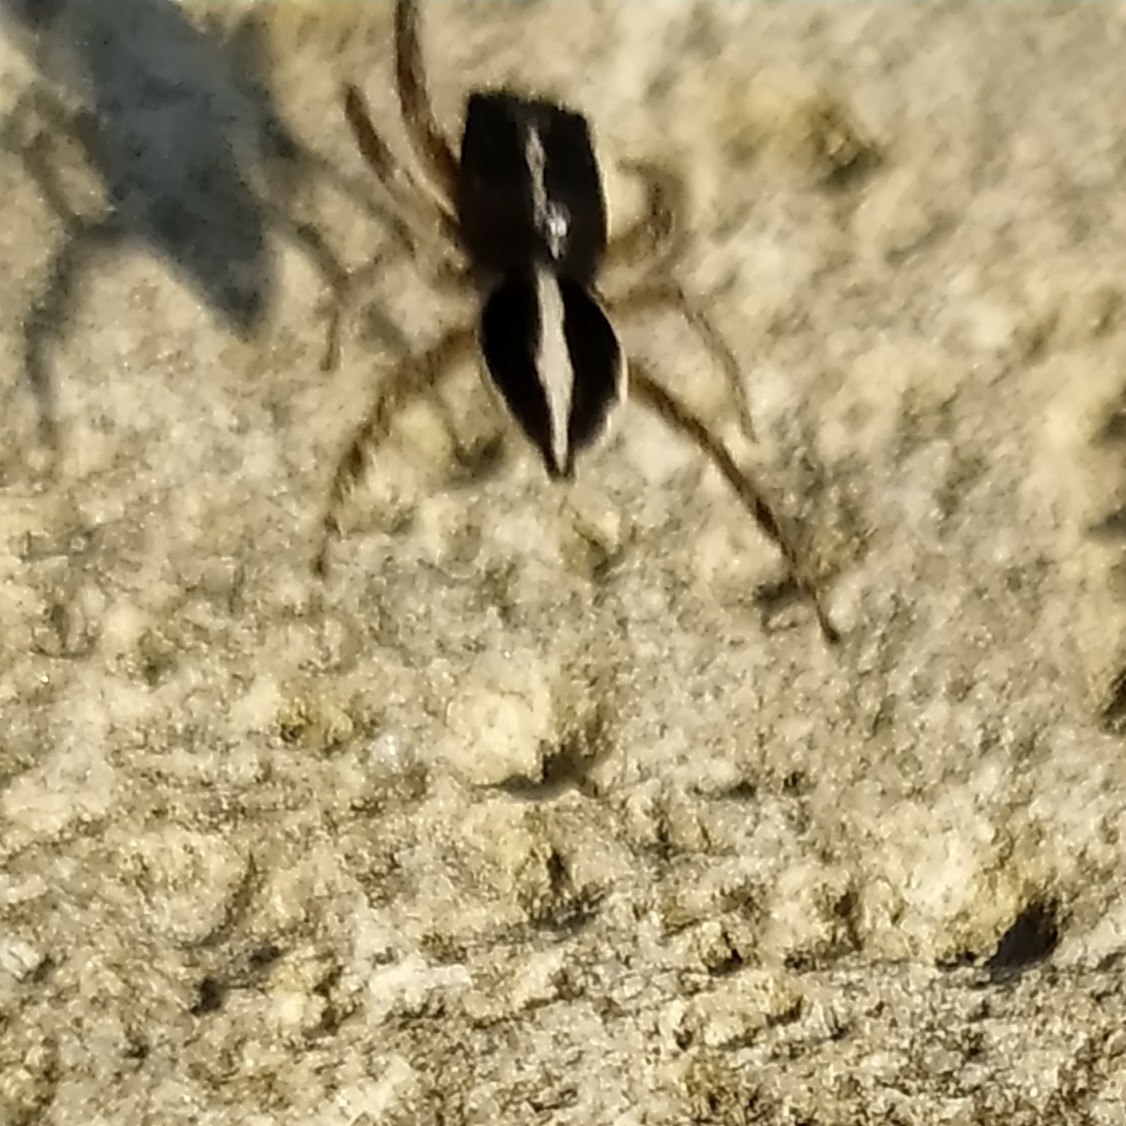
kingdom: Animalia
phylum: Arthropoda
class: Arachnida
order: Araneae
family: Salticidae
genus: Attulus
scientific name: Attulus damini
